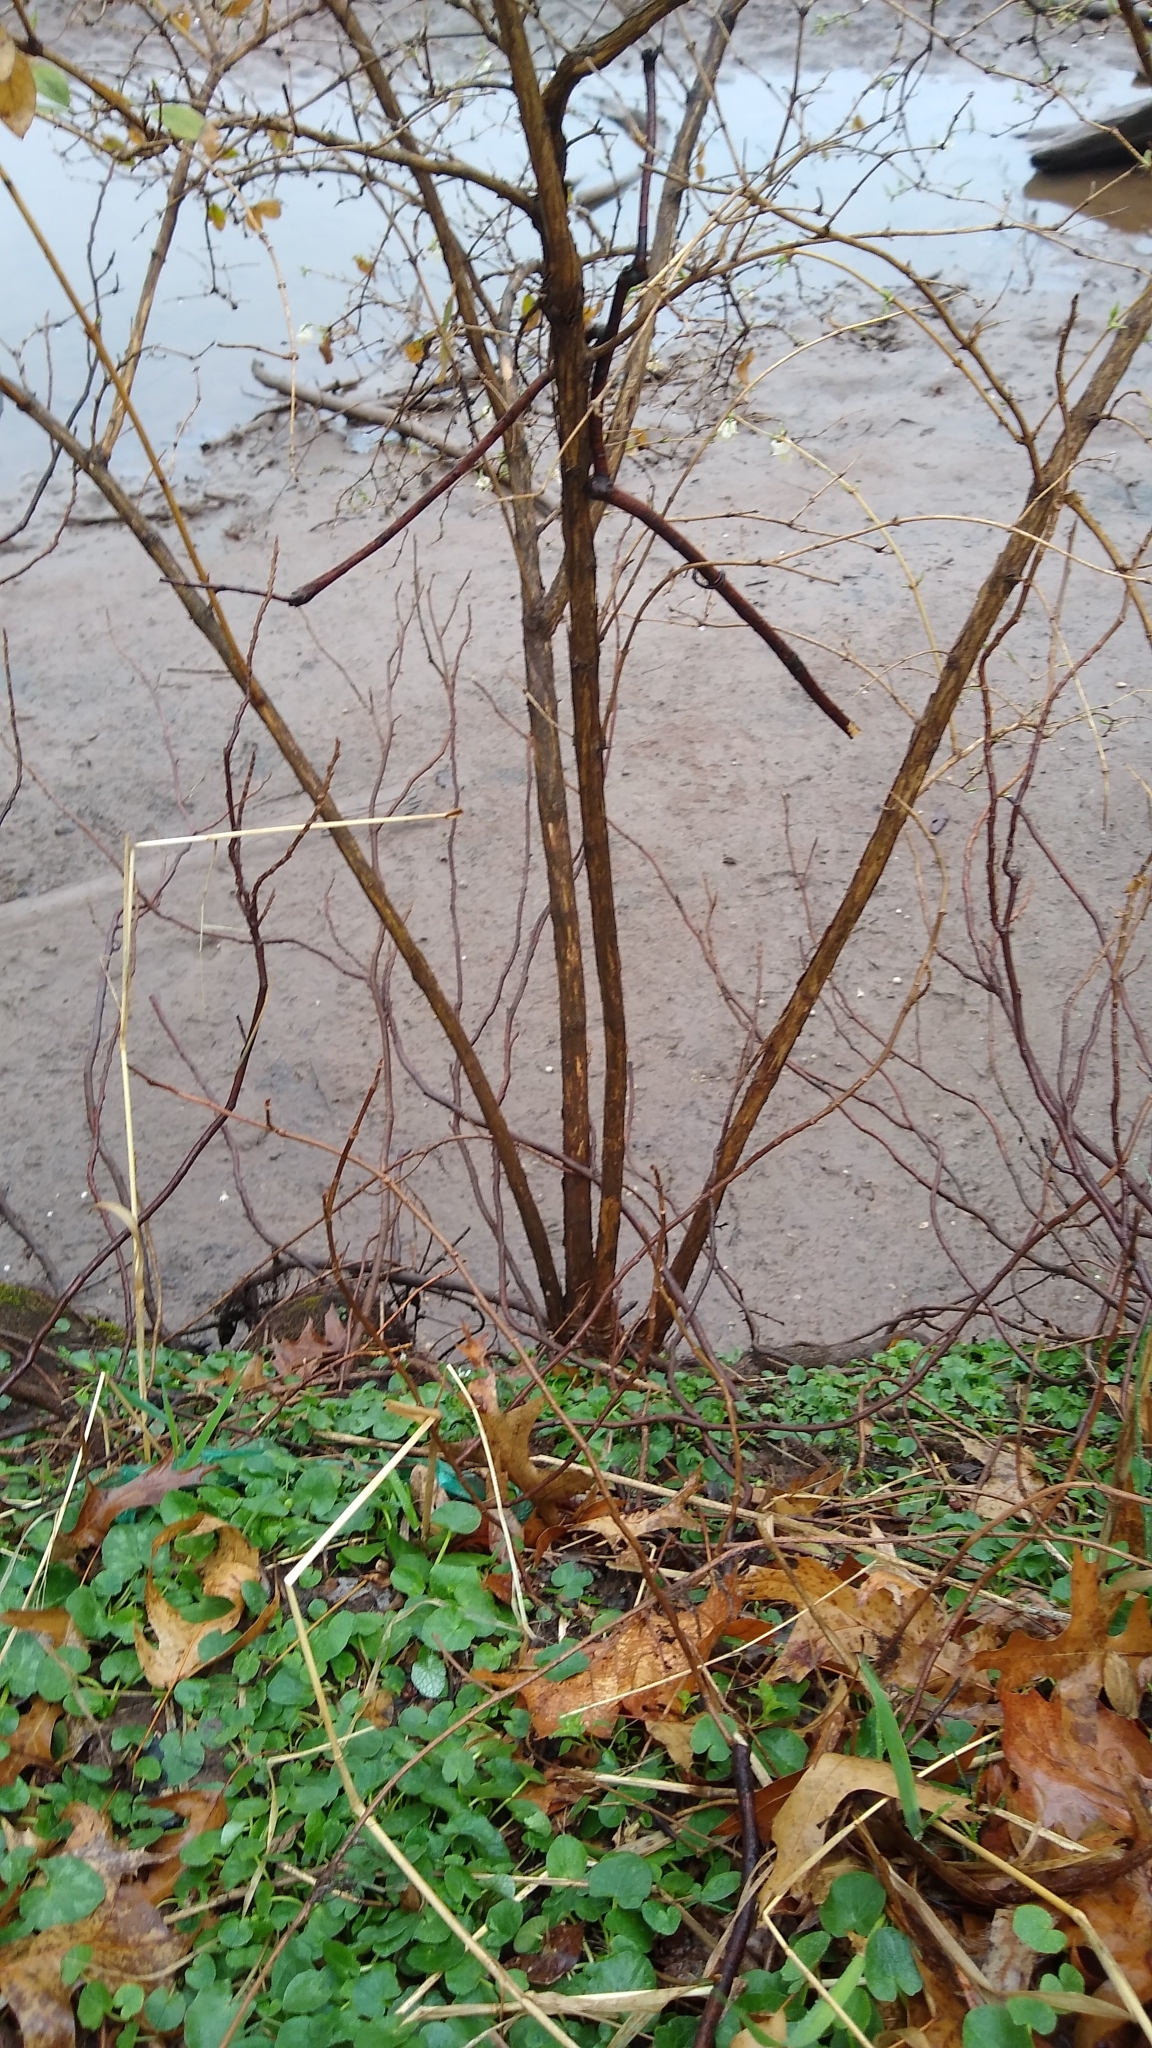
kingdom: Plantae
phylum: Tracheophyta
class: Magnoliopsida
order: Dipsacales
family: Caprifoliaceae
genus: Lonicera
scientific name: Lonicera fragrantissima
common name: Fragrant honeysuckle
